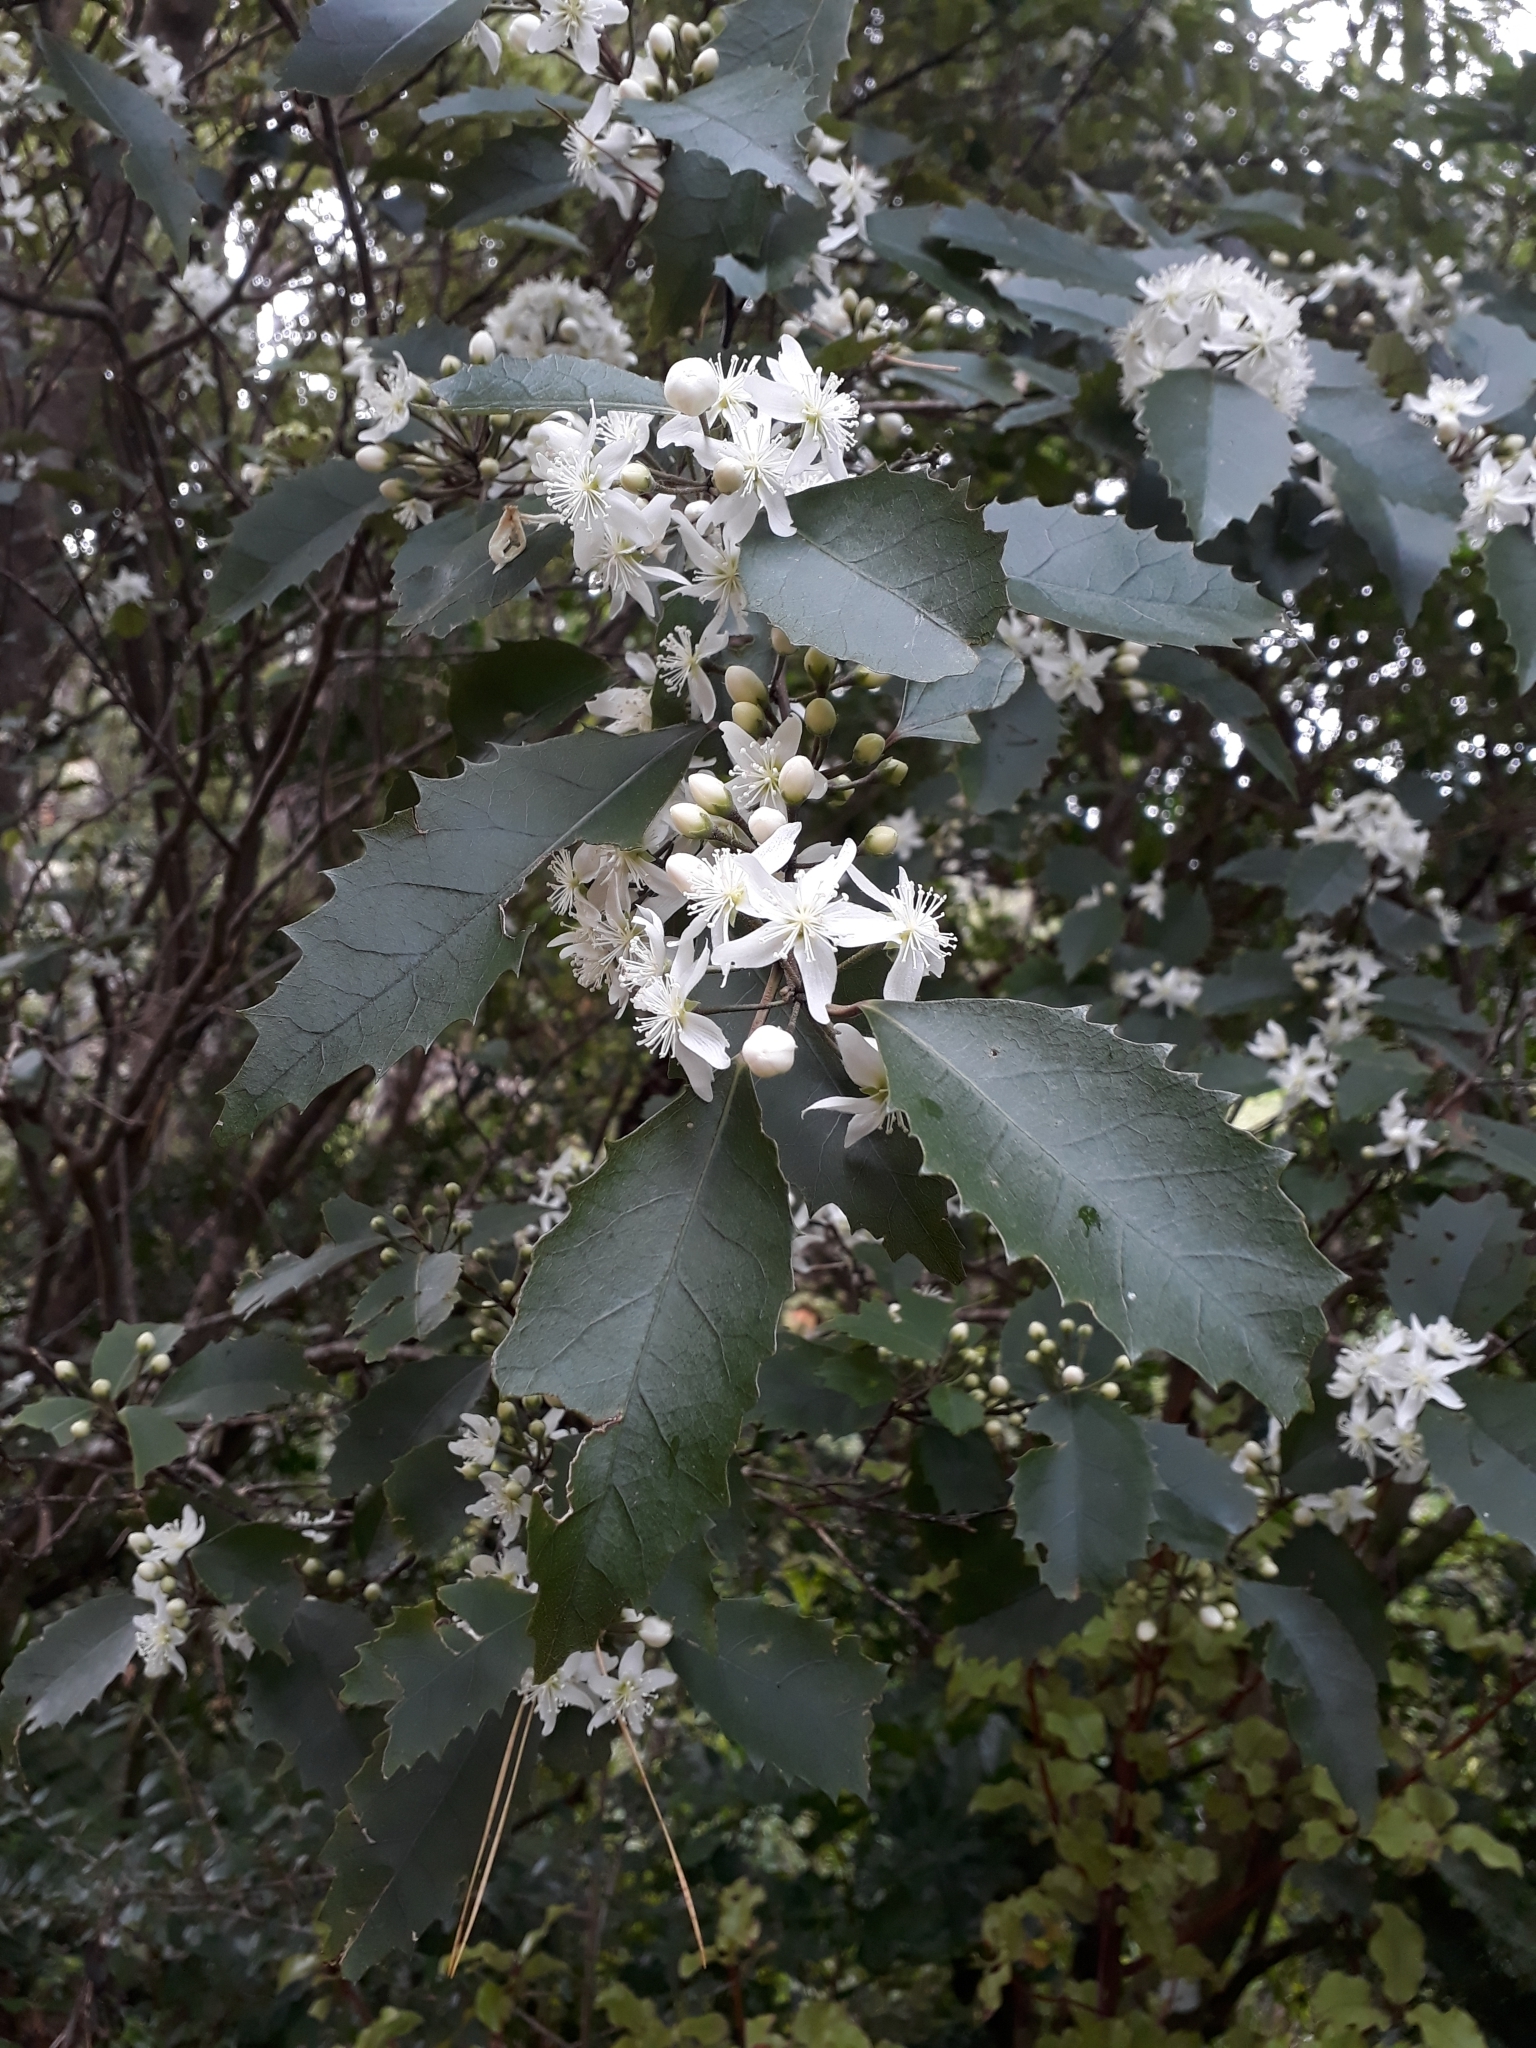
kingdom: Plantae
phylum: Tracheophyta
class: Magnoliopsida
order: Malvales
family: Malvaceae
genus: Hoheria
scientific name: Hoheria populnea
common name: Lacebark
